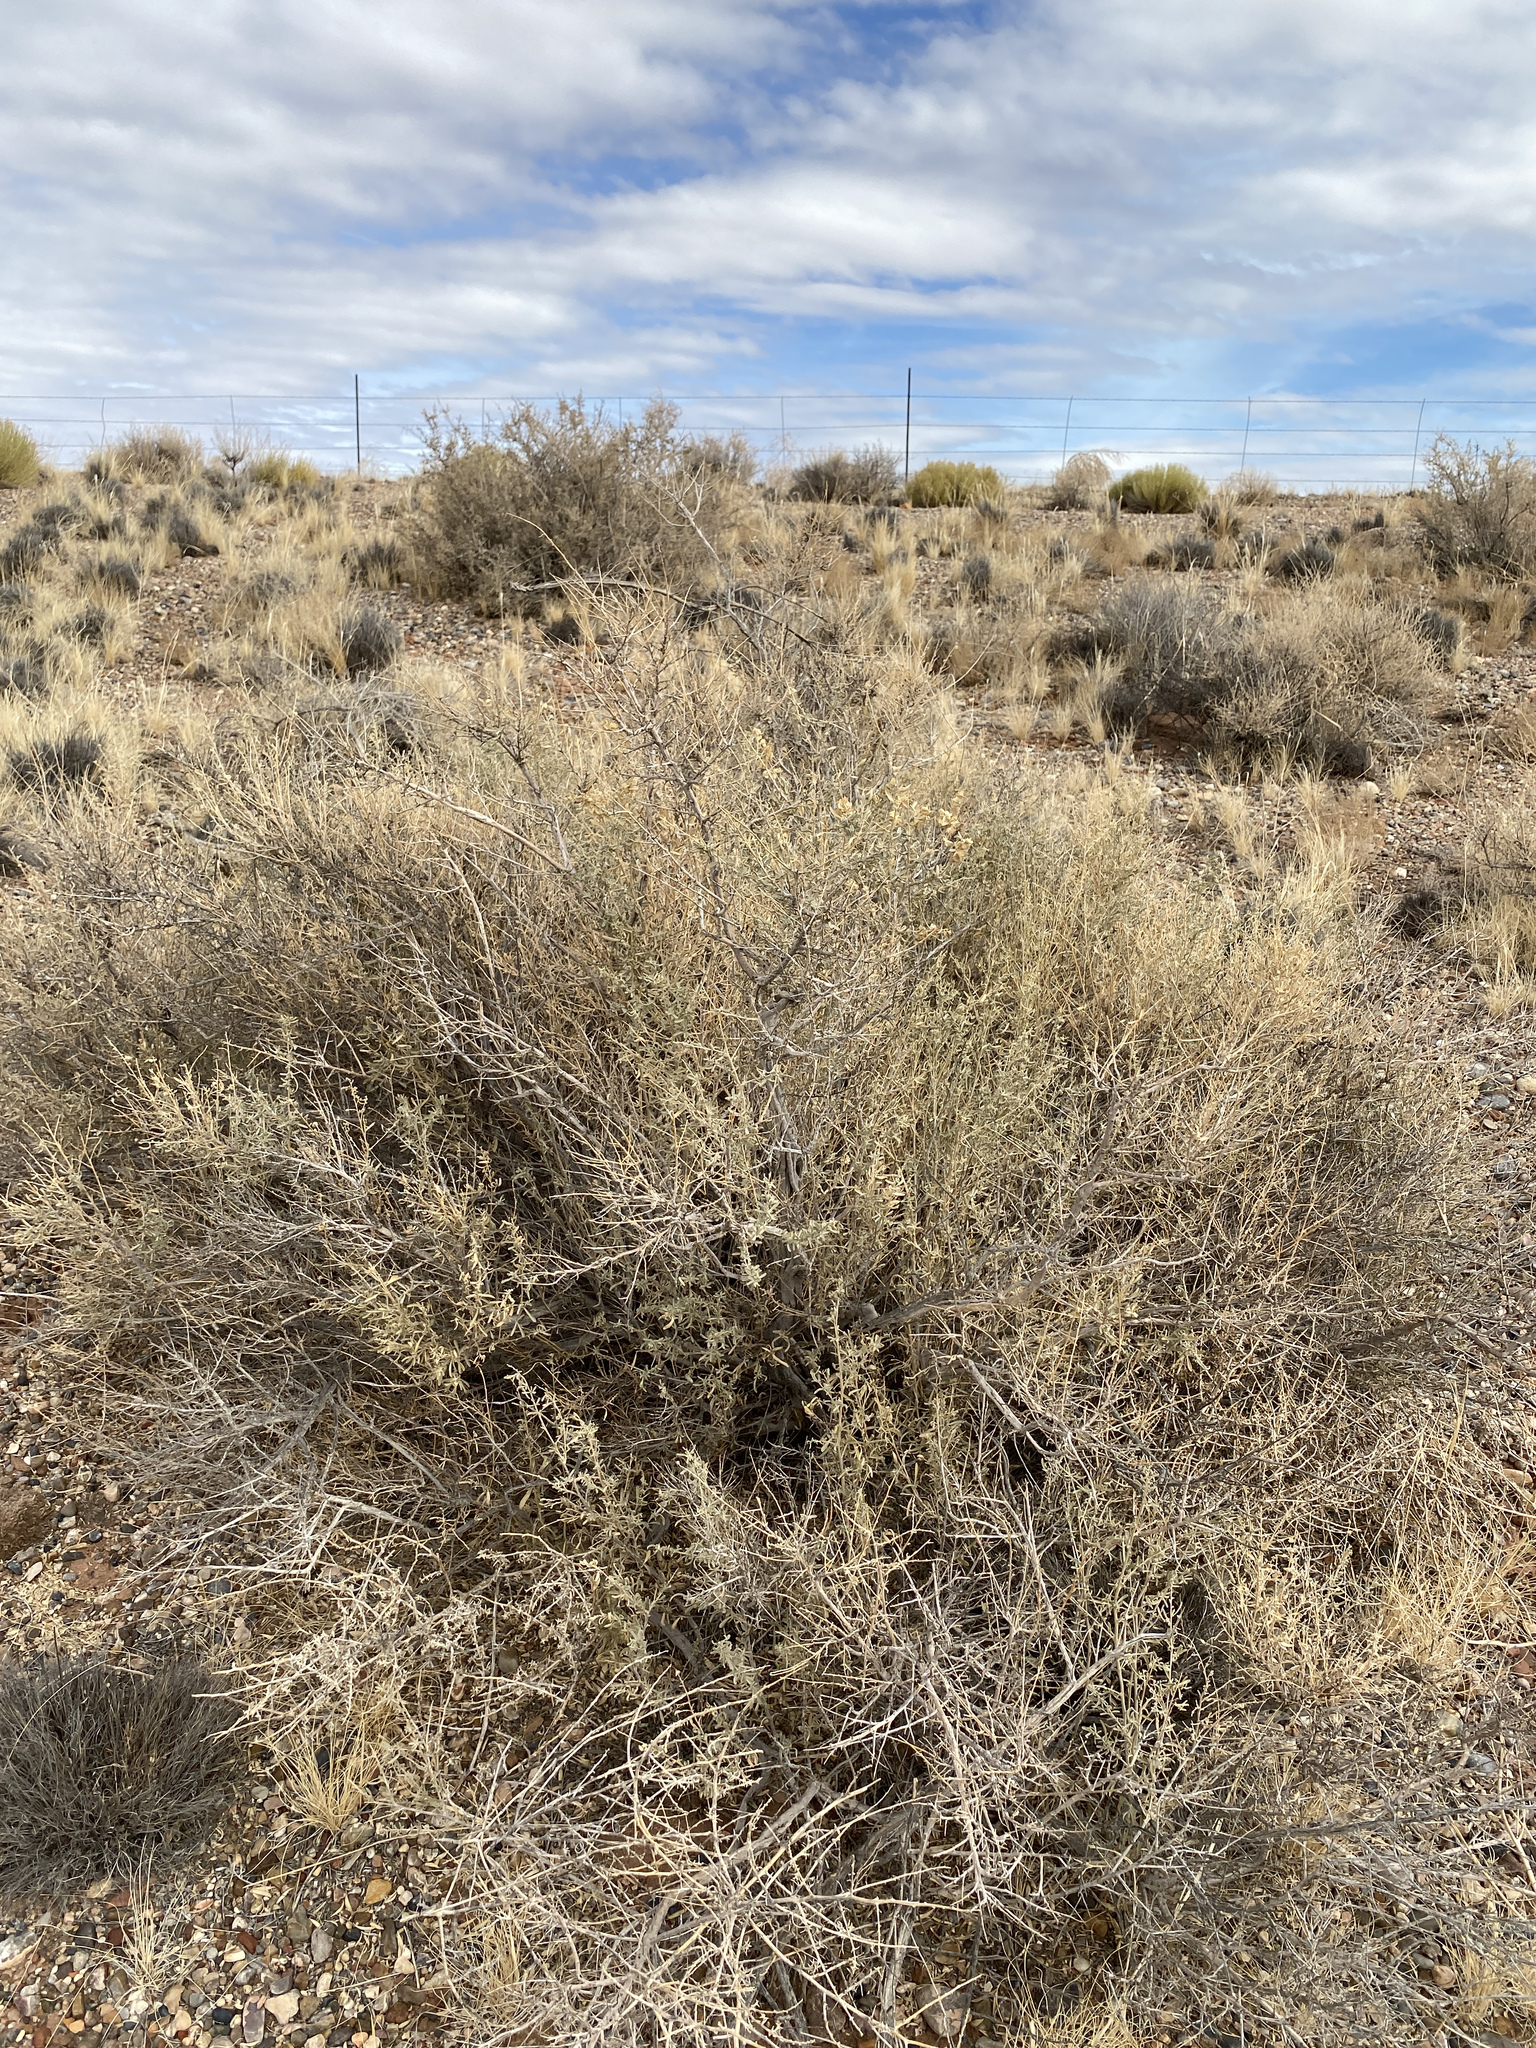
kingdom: Plantae
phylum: Tracheophyta
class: Magnoliopsida
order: Caryophyllales
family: Amaranthaceae
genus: Atriplex
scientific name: Atriplex canescens
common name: Four-wing saltbush
